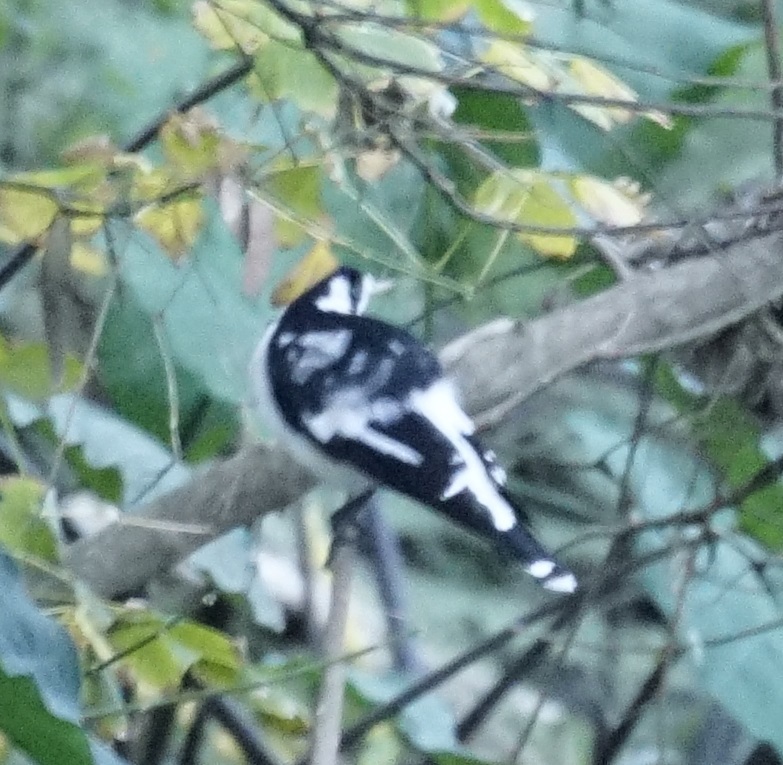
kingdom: Animalia
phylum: Chordata
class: Aves
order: Passeriformes
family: Monarchidae
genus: Grallina
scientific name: Grallina cyanoleuca
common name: Magpie-lark
